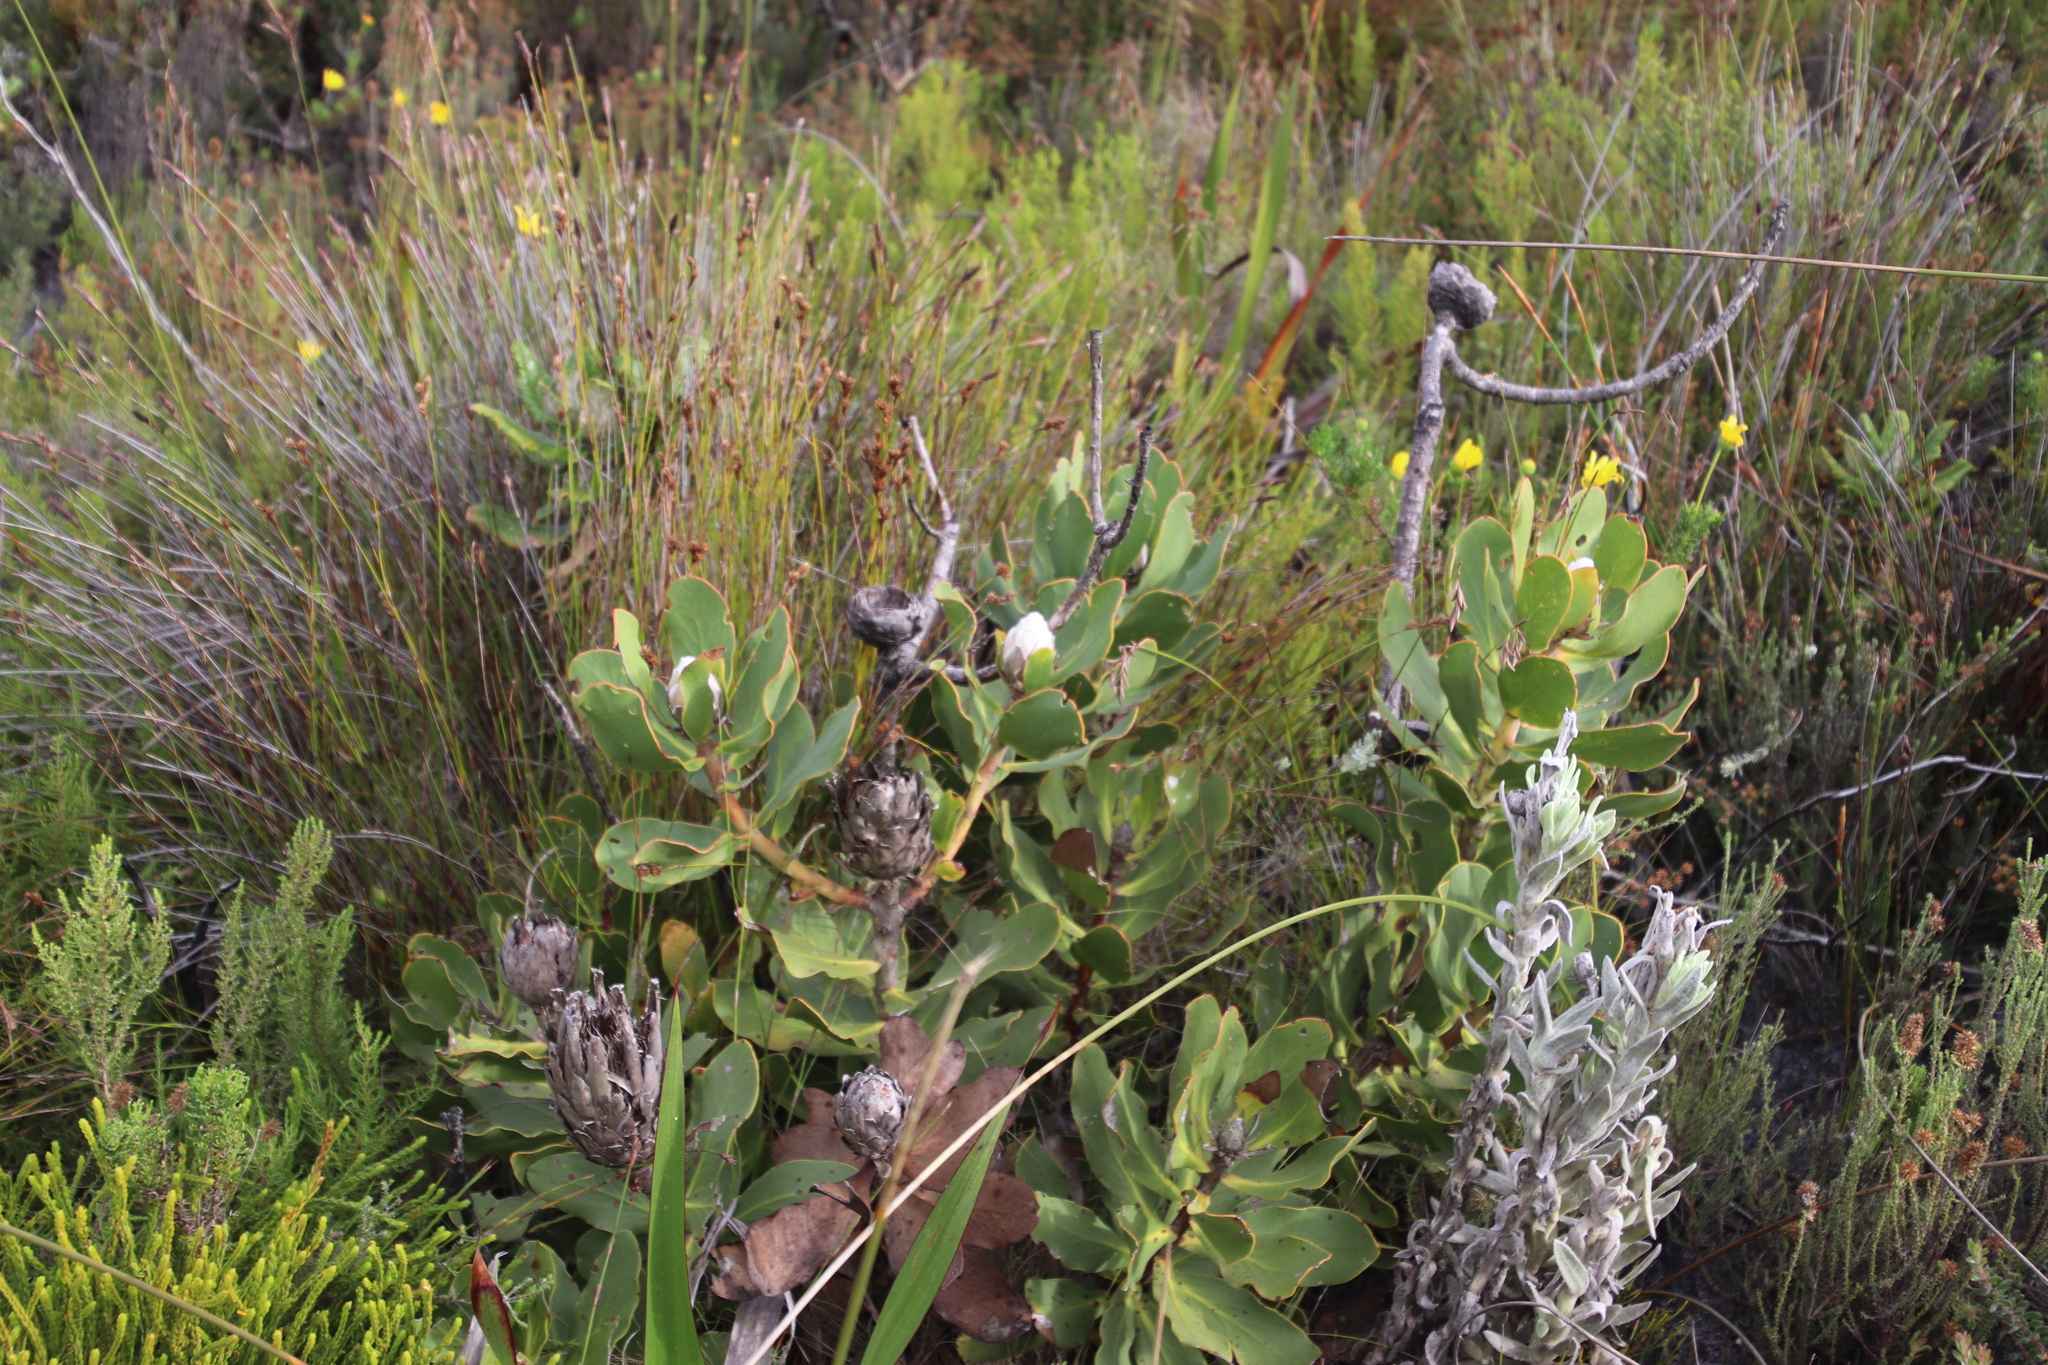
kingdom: Plantae
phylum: Tracheophyta
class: Magnoliopsida
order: Proteales
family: Proteaceae
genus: Protea
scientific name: Protea speciosa
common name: Brown-beard sugarbush
